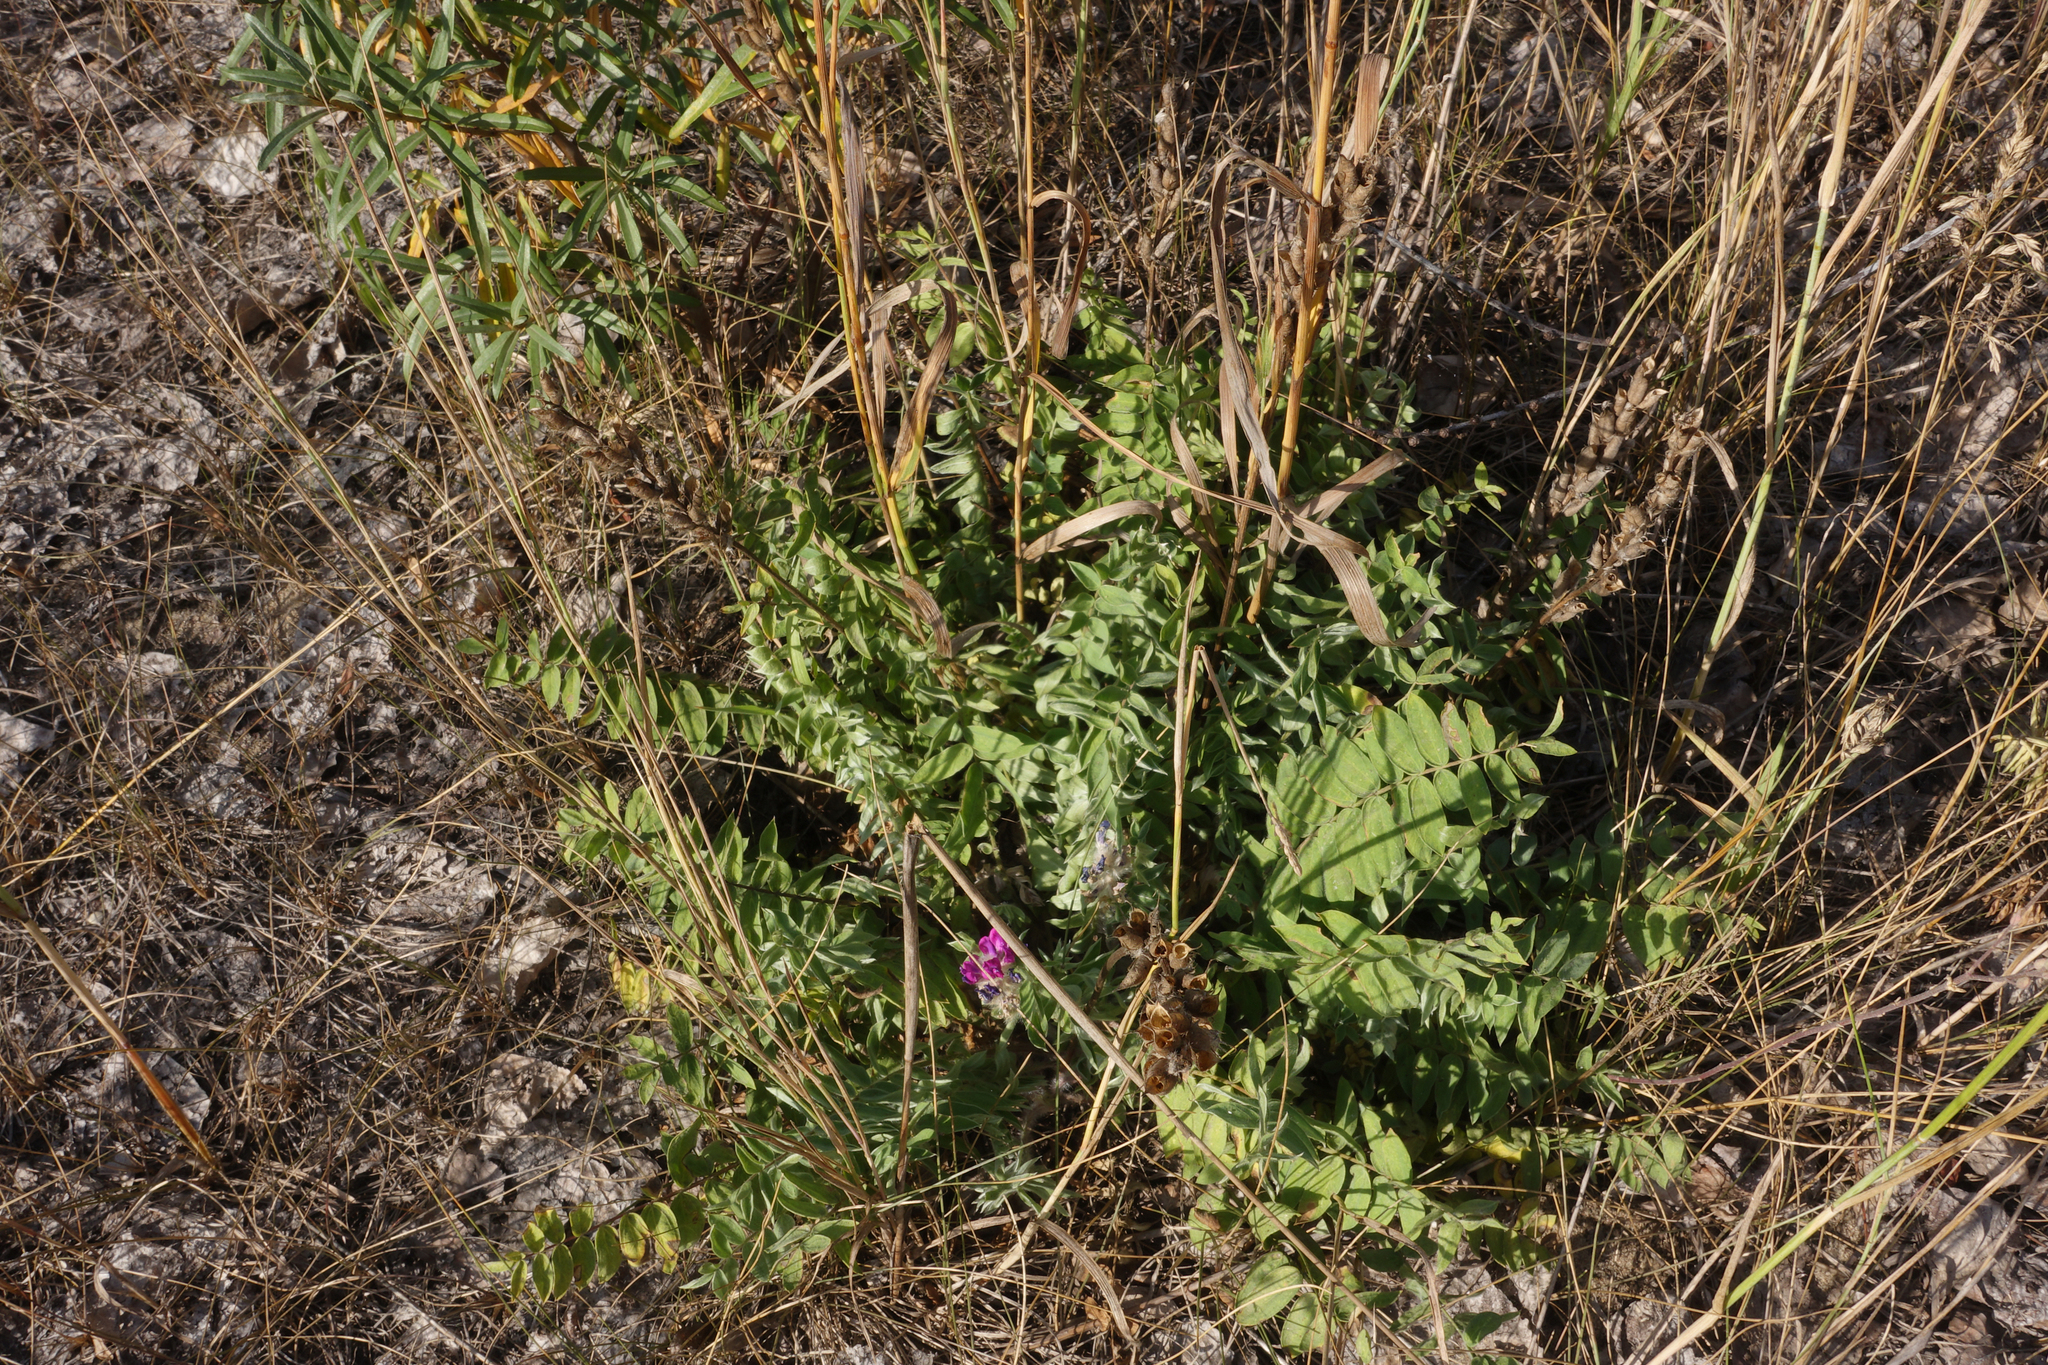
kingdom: Plantae
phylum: Tracheophyta
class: Magnoliopsida
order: Fabales
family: Fabaceae
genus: Oxytropis
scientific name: Oxytropis campanulata
